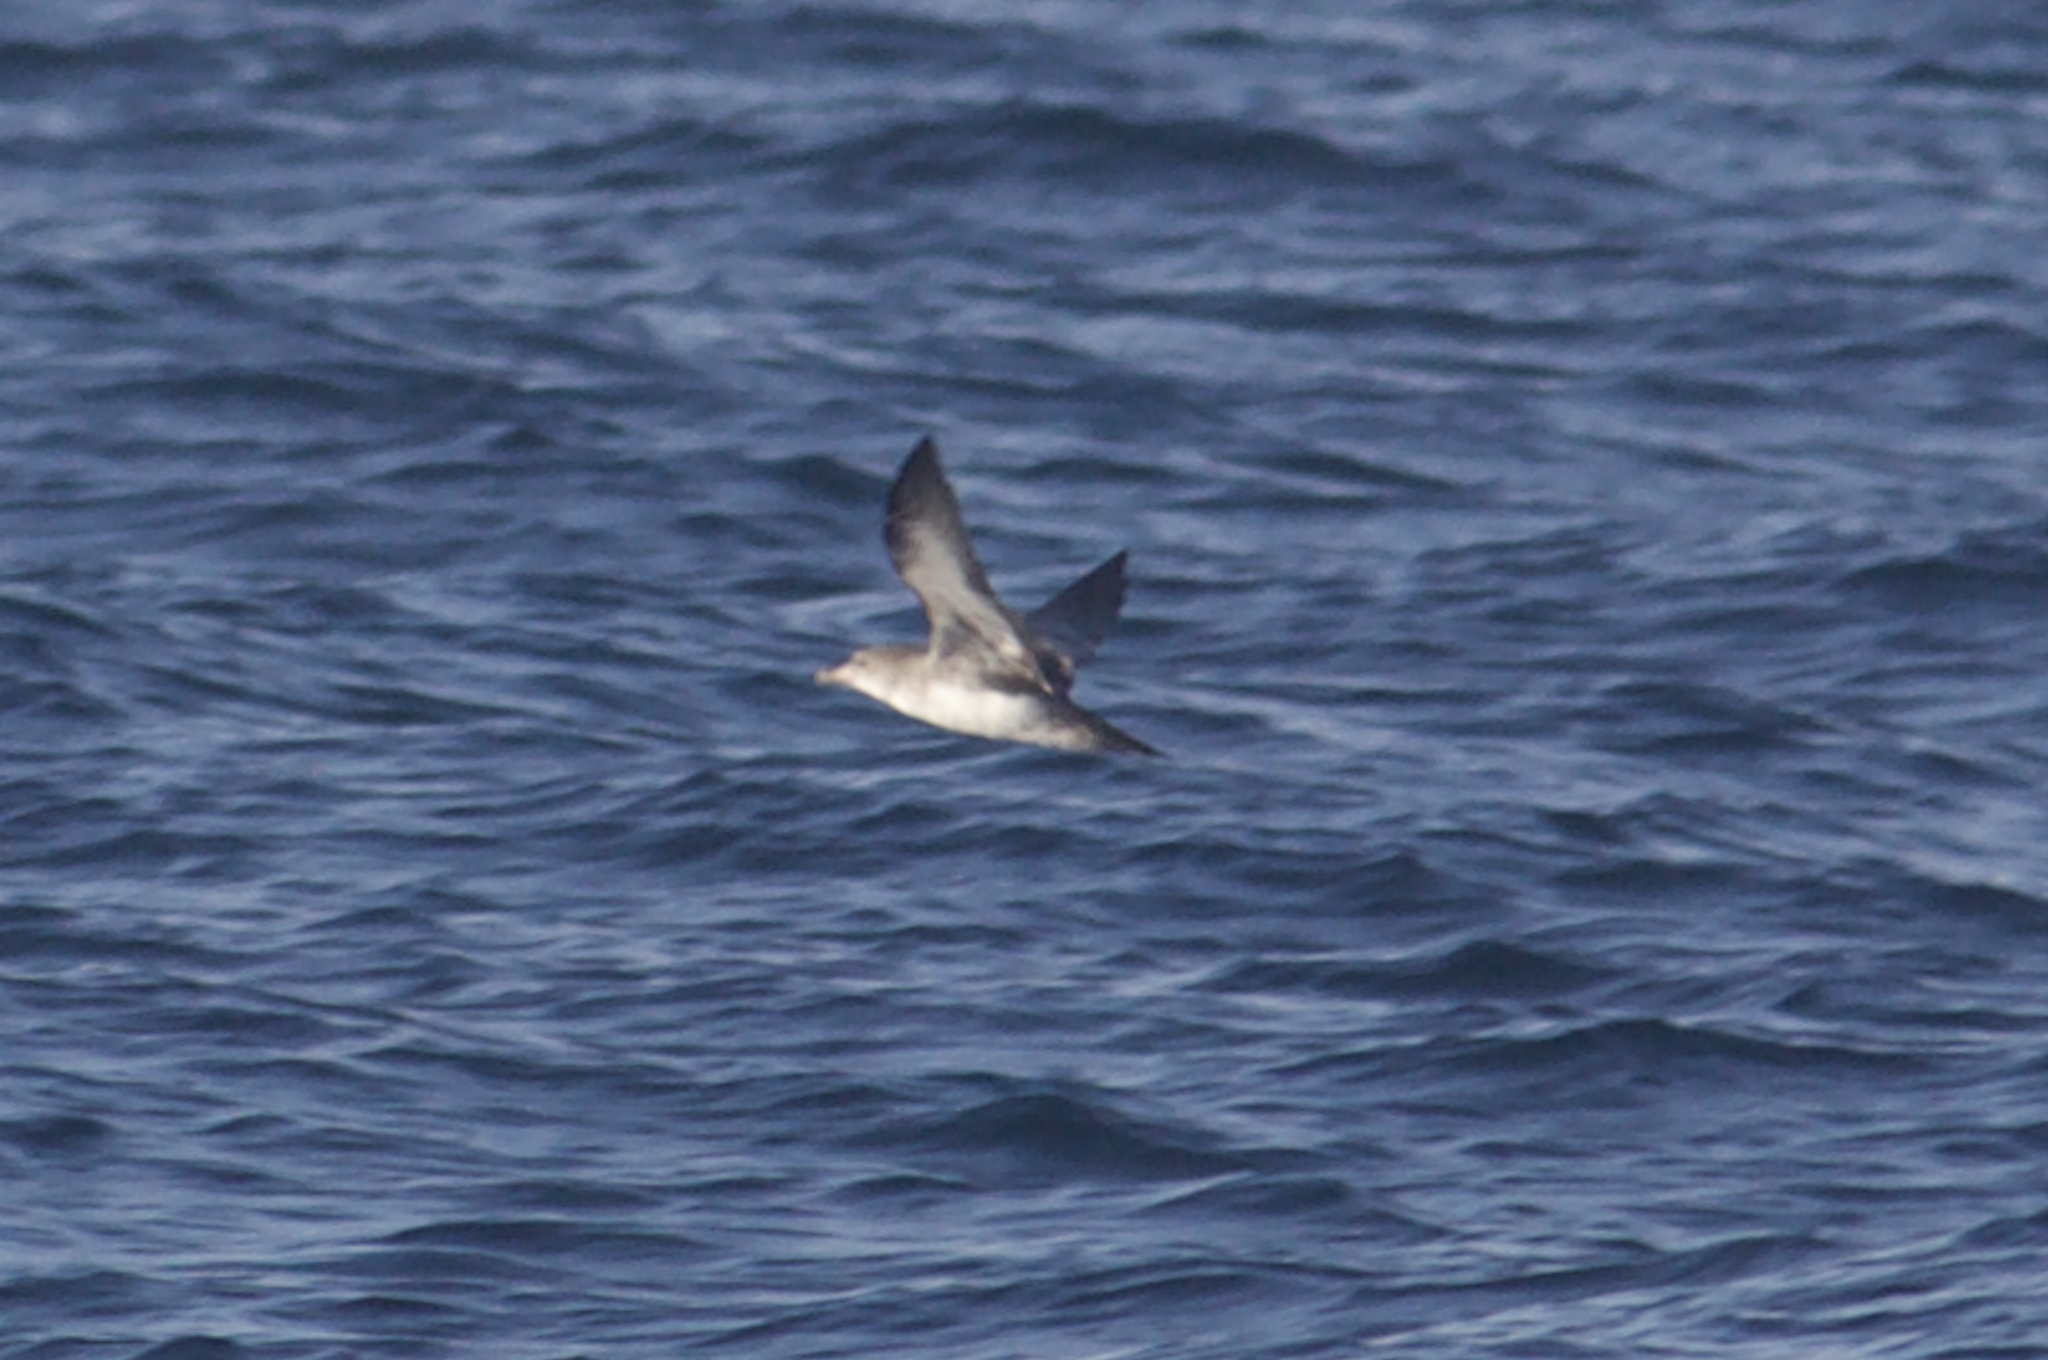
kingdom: Animalia
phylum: Chordata
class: Aves
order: Procellariiformes
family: Procellariidae
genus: Puffinus
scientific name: Puffinus creatopus
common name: Pink-footed shearwater
